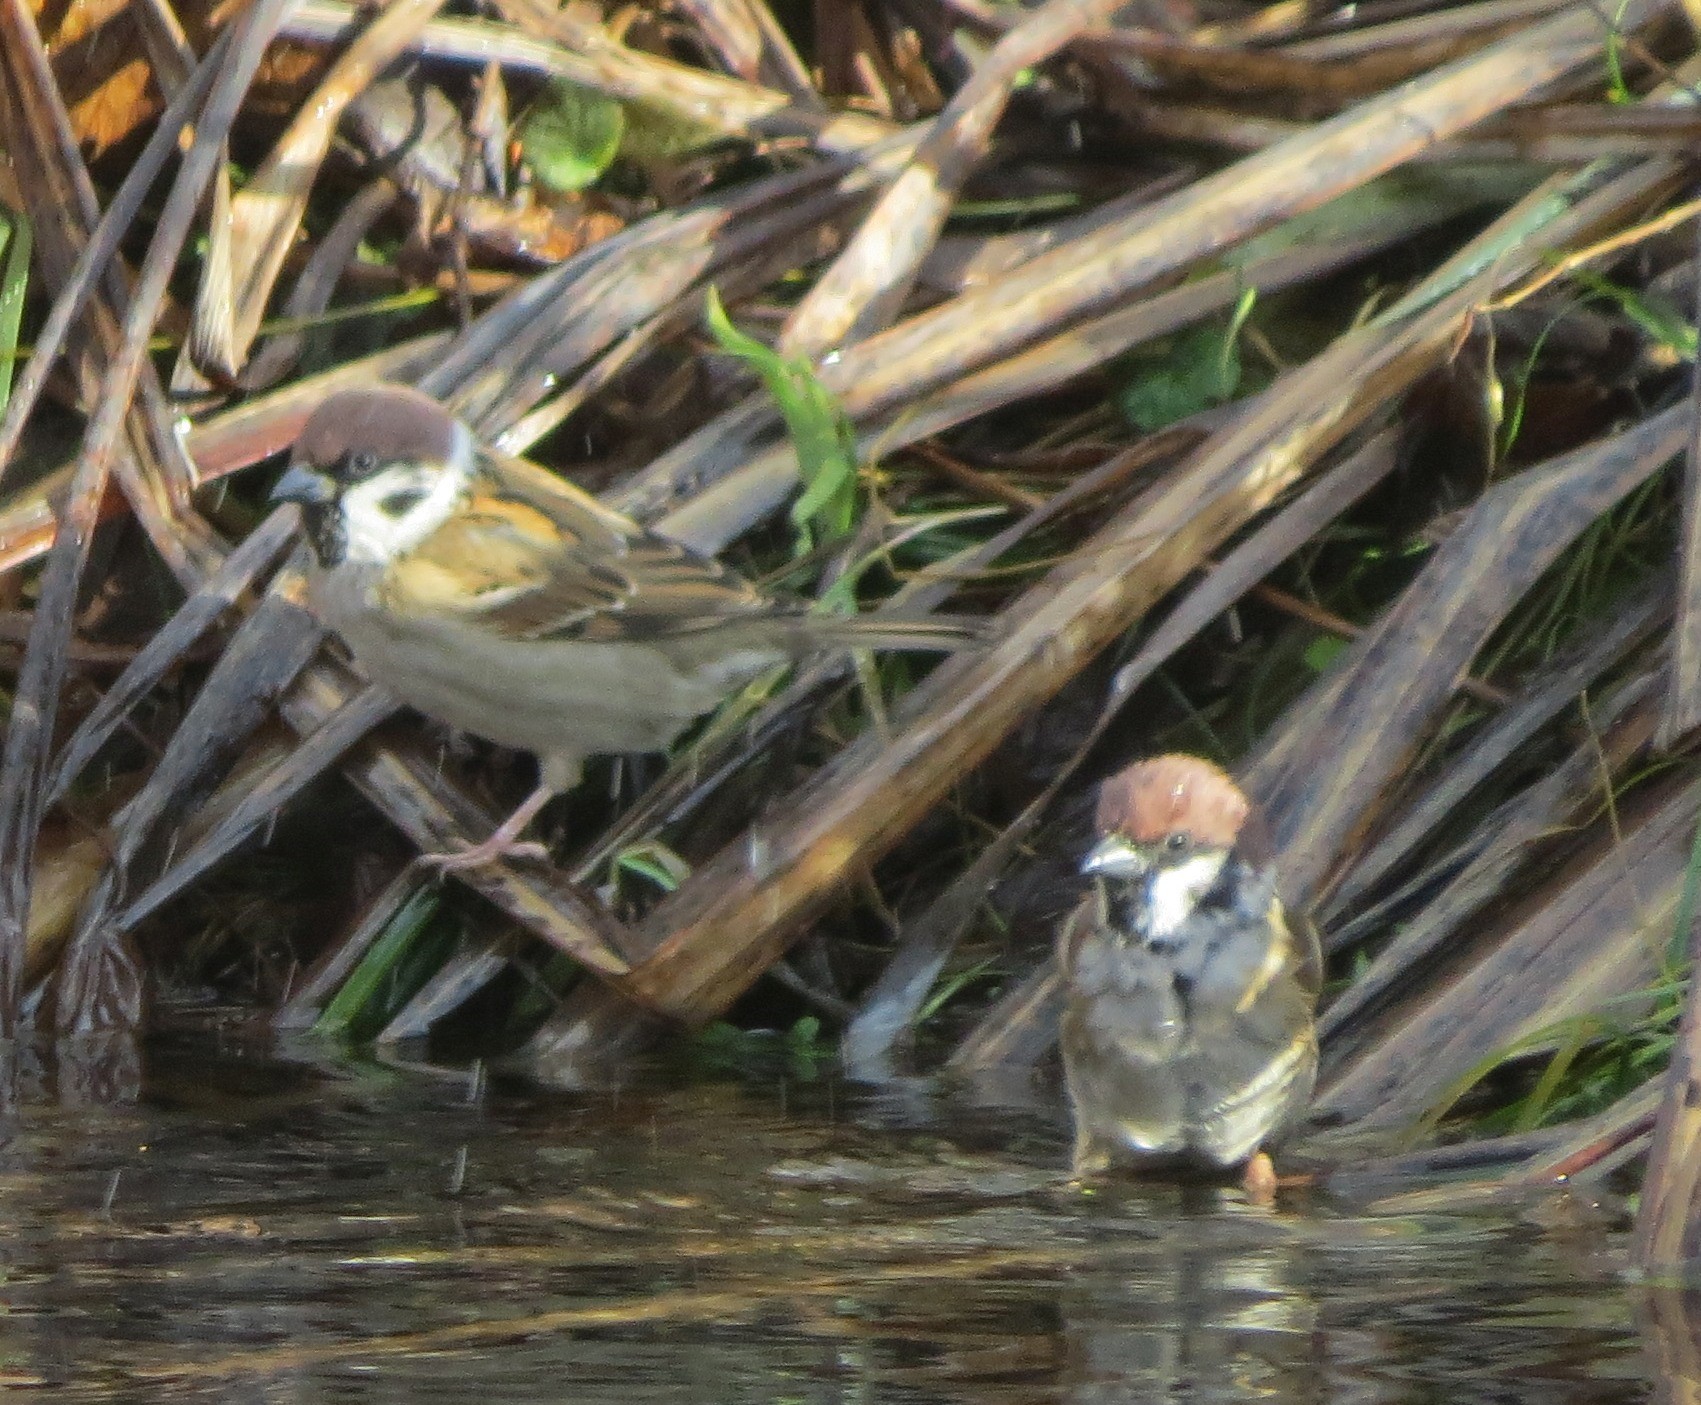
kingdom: Animalia
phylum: Chordata
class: Aves
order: Passeriformes
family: Passeridae
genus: Passer
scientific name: Passer montanus
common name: Eurasian tree sparrow
